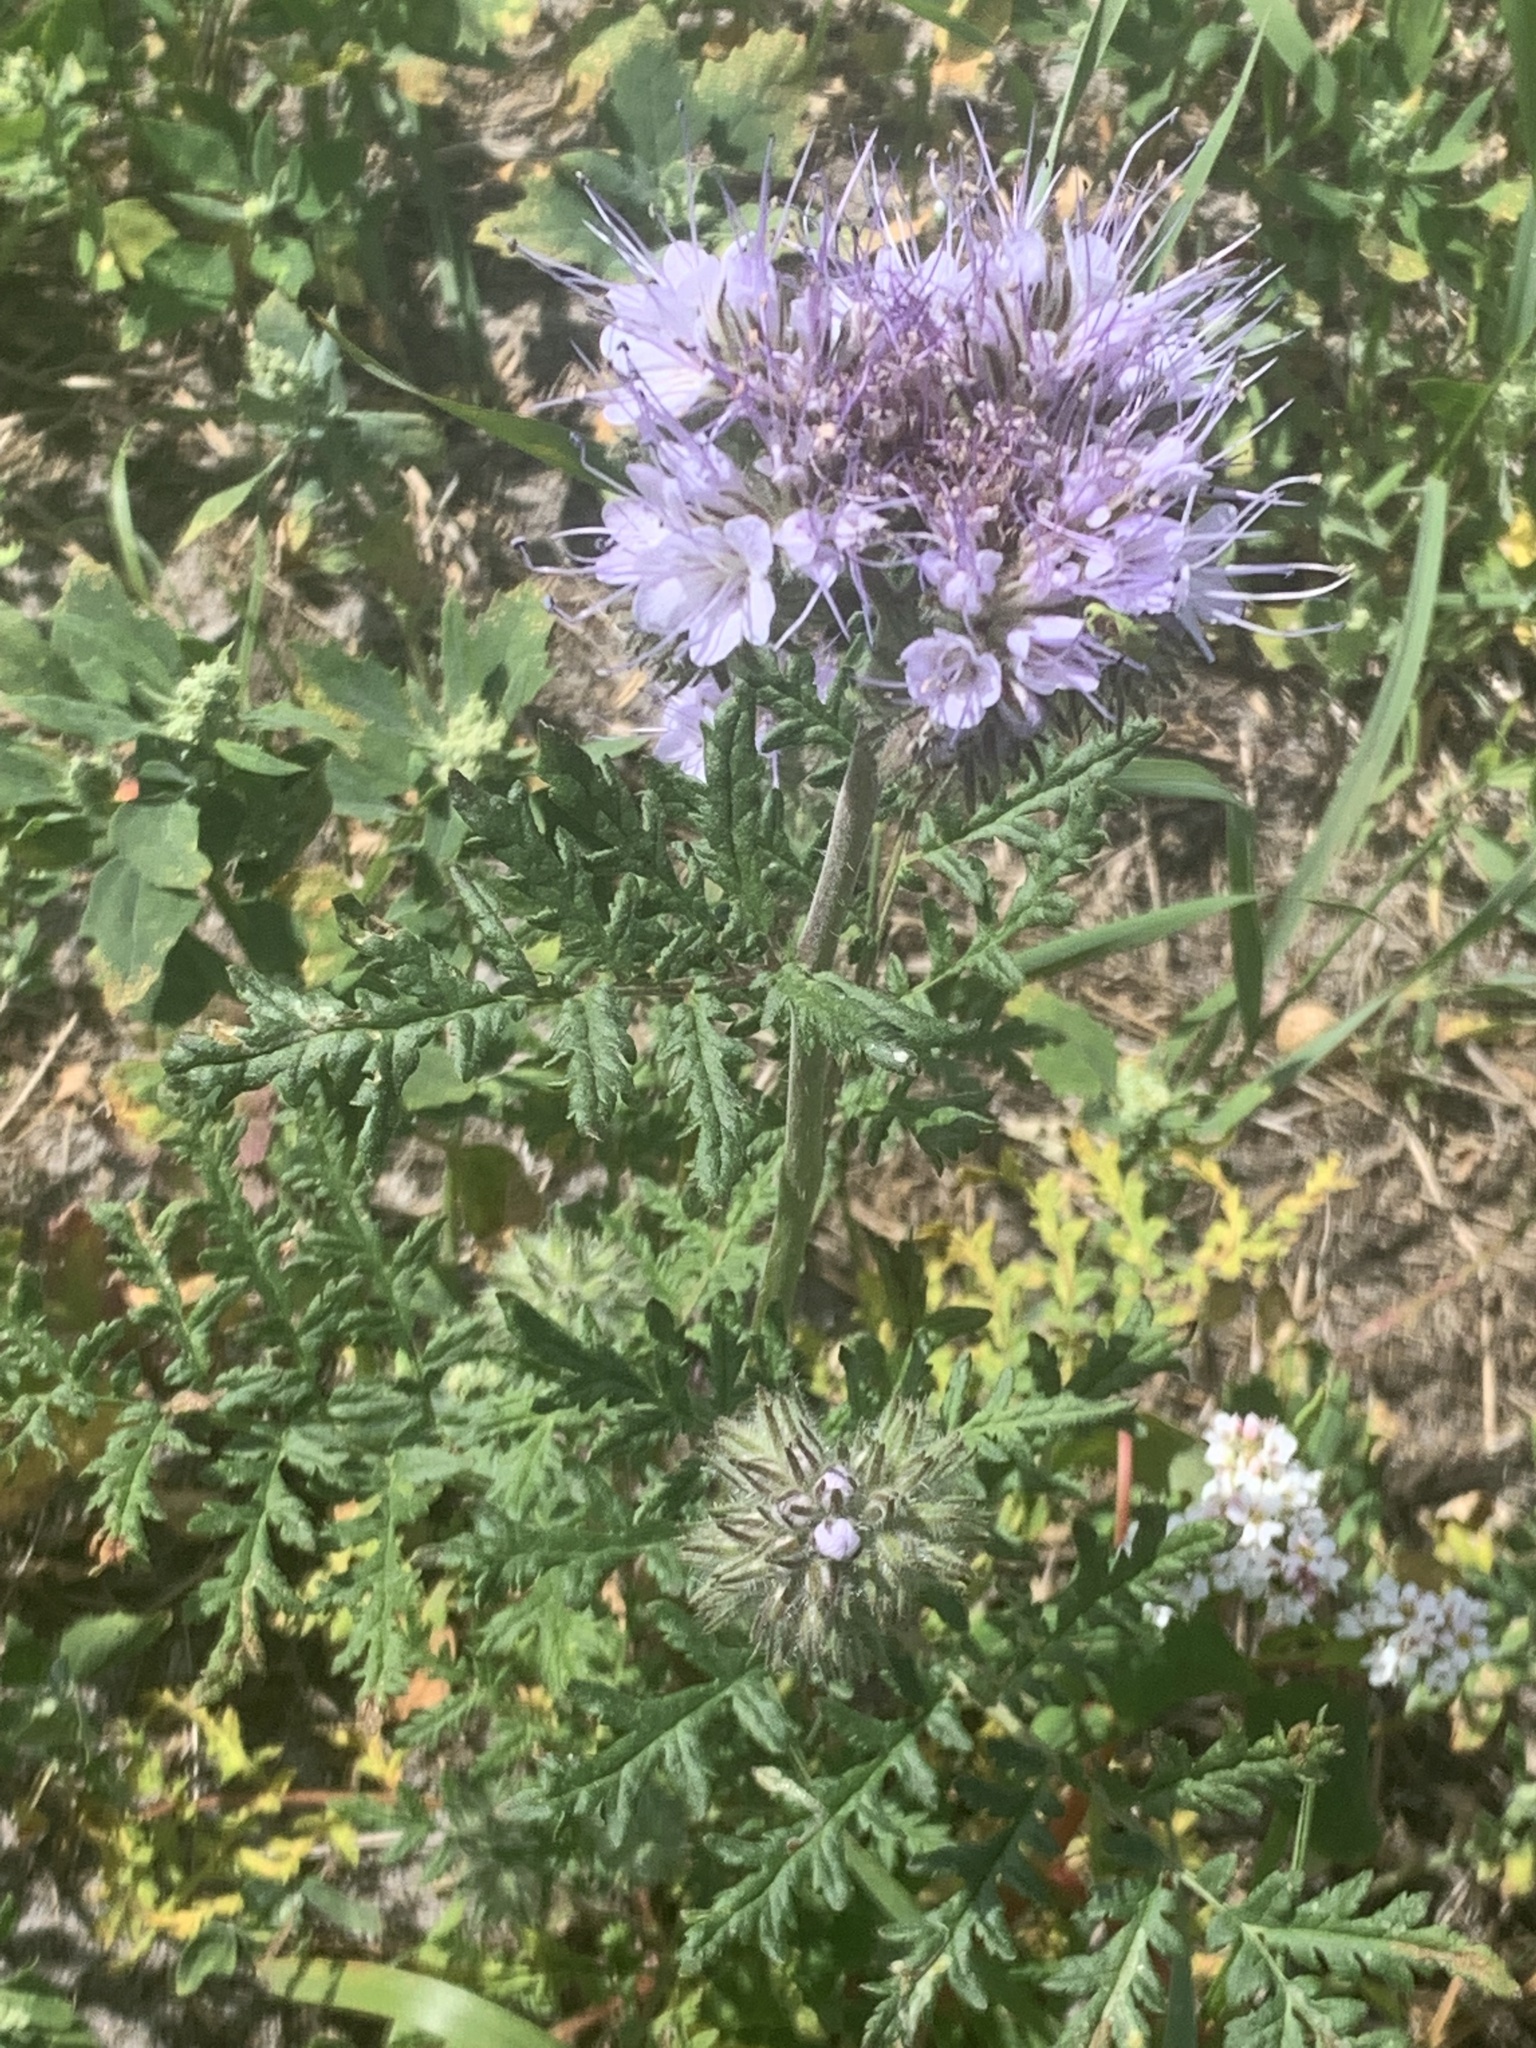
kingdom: Plantae
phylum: Tracheophyta
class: Magnoliopsida
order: Boraginales
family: Hydrophyllaceae
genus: Phacelia
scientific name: Phacelia tanacetifolia
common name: Phacelia
